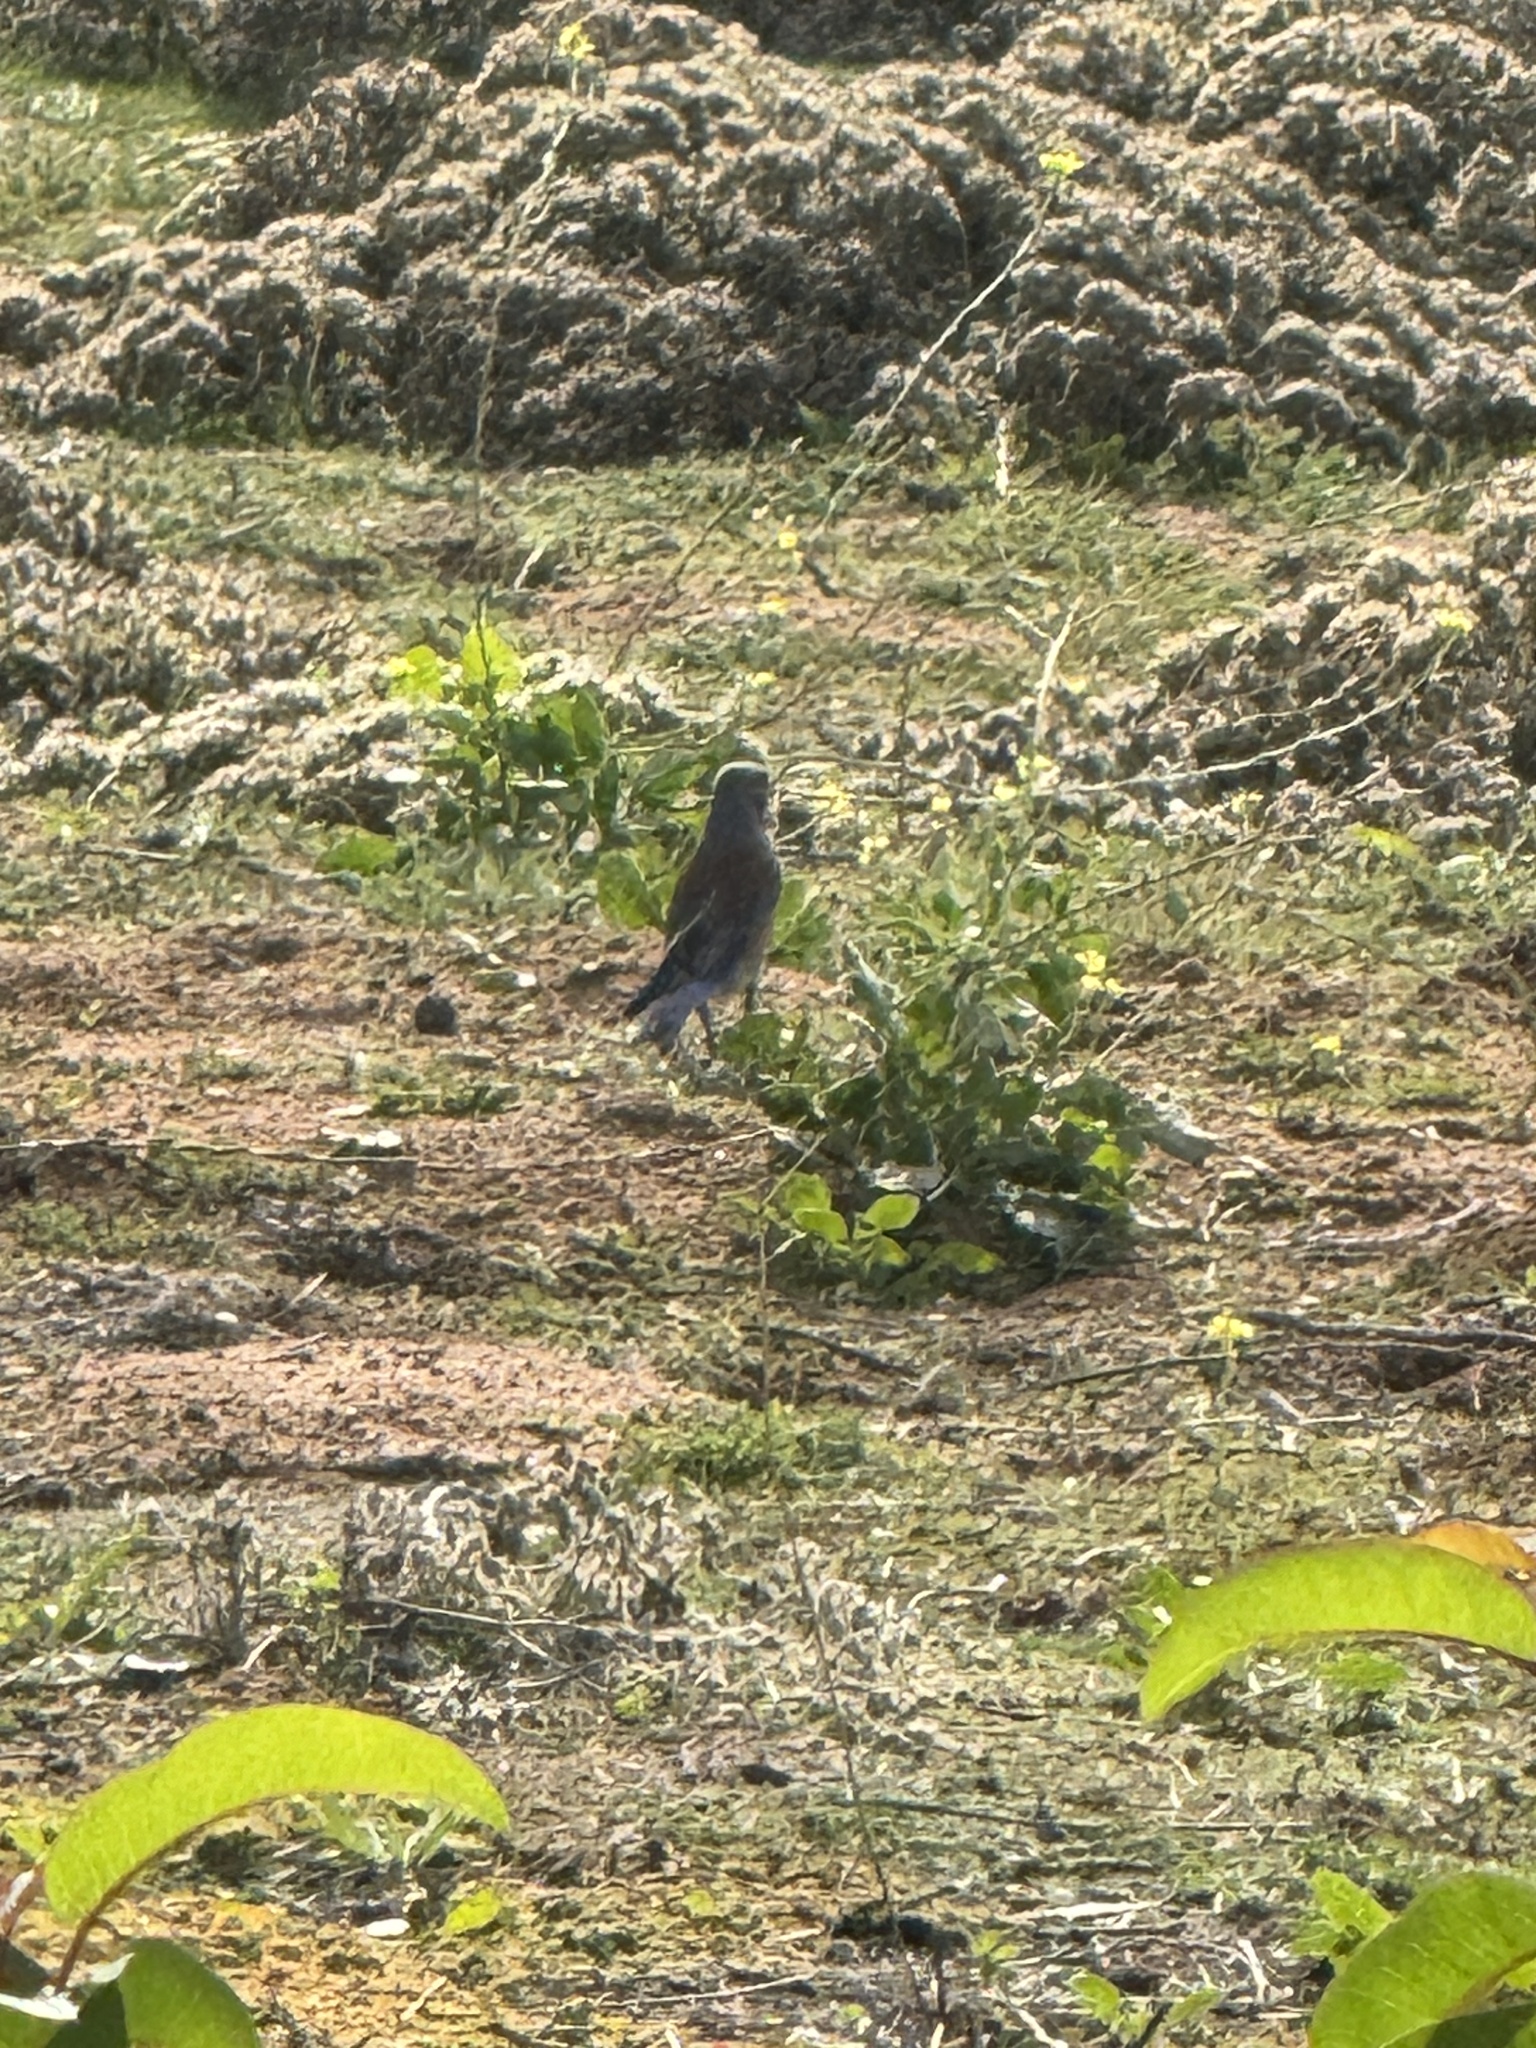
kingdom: Animalia
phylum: Chordata
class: Aves
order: Passeriformes
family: Turdidae
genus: Sialia
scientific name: Sialia mexicana
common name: Western bluebird
